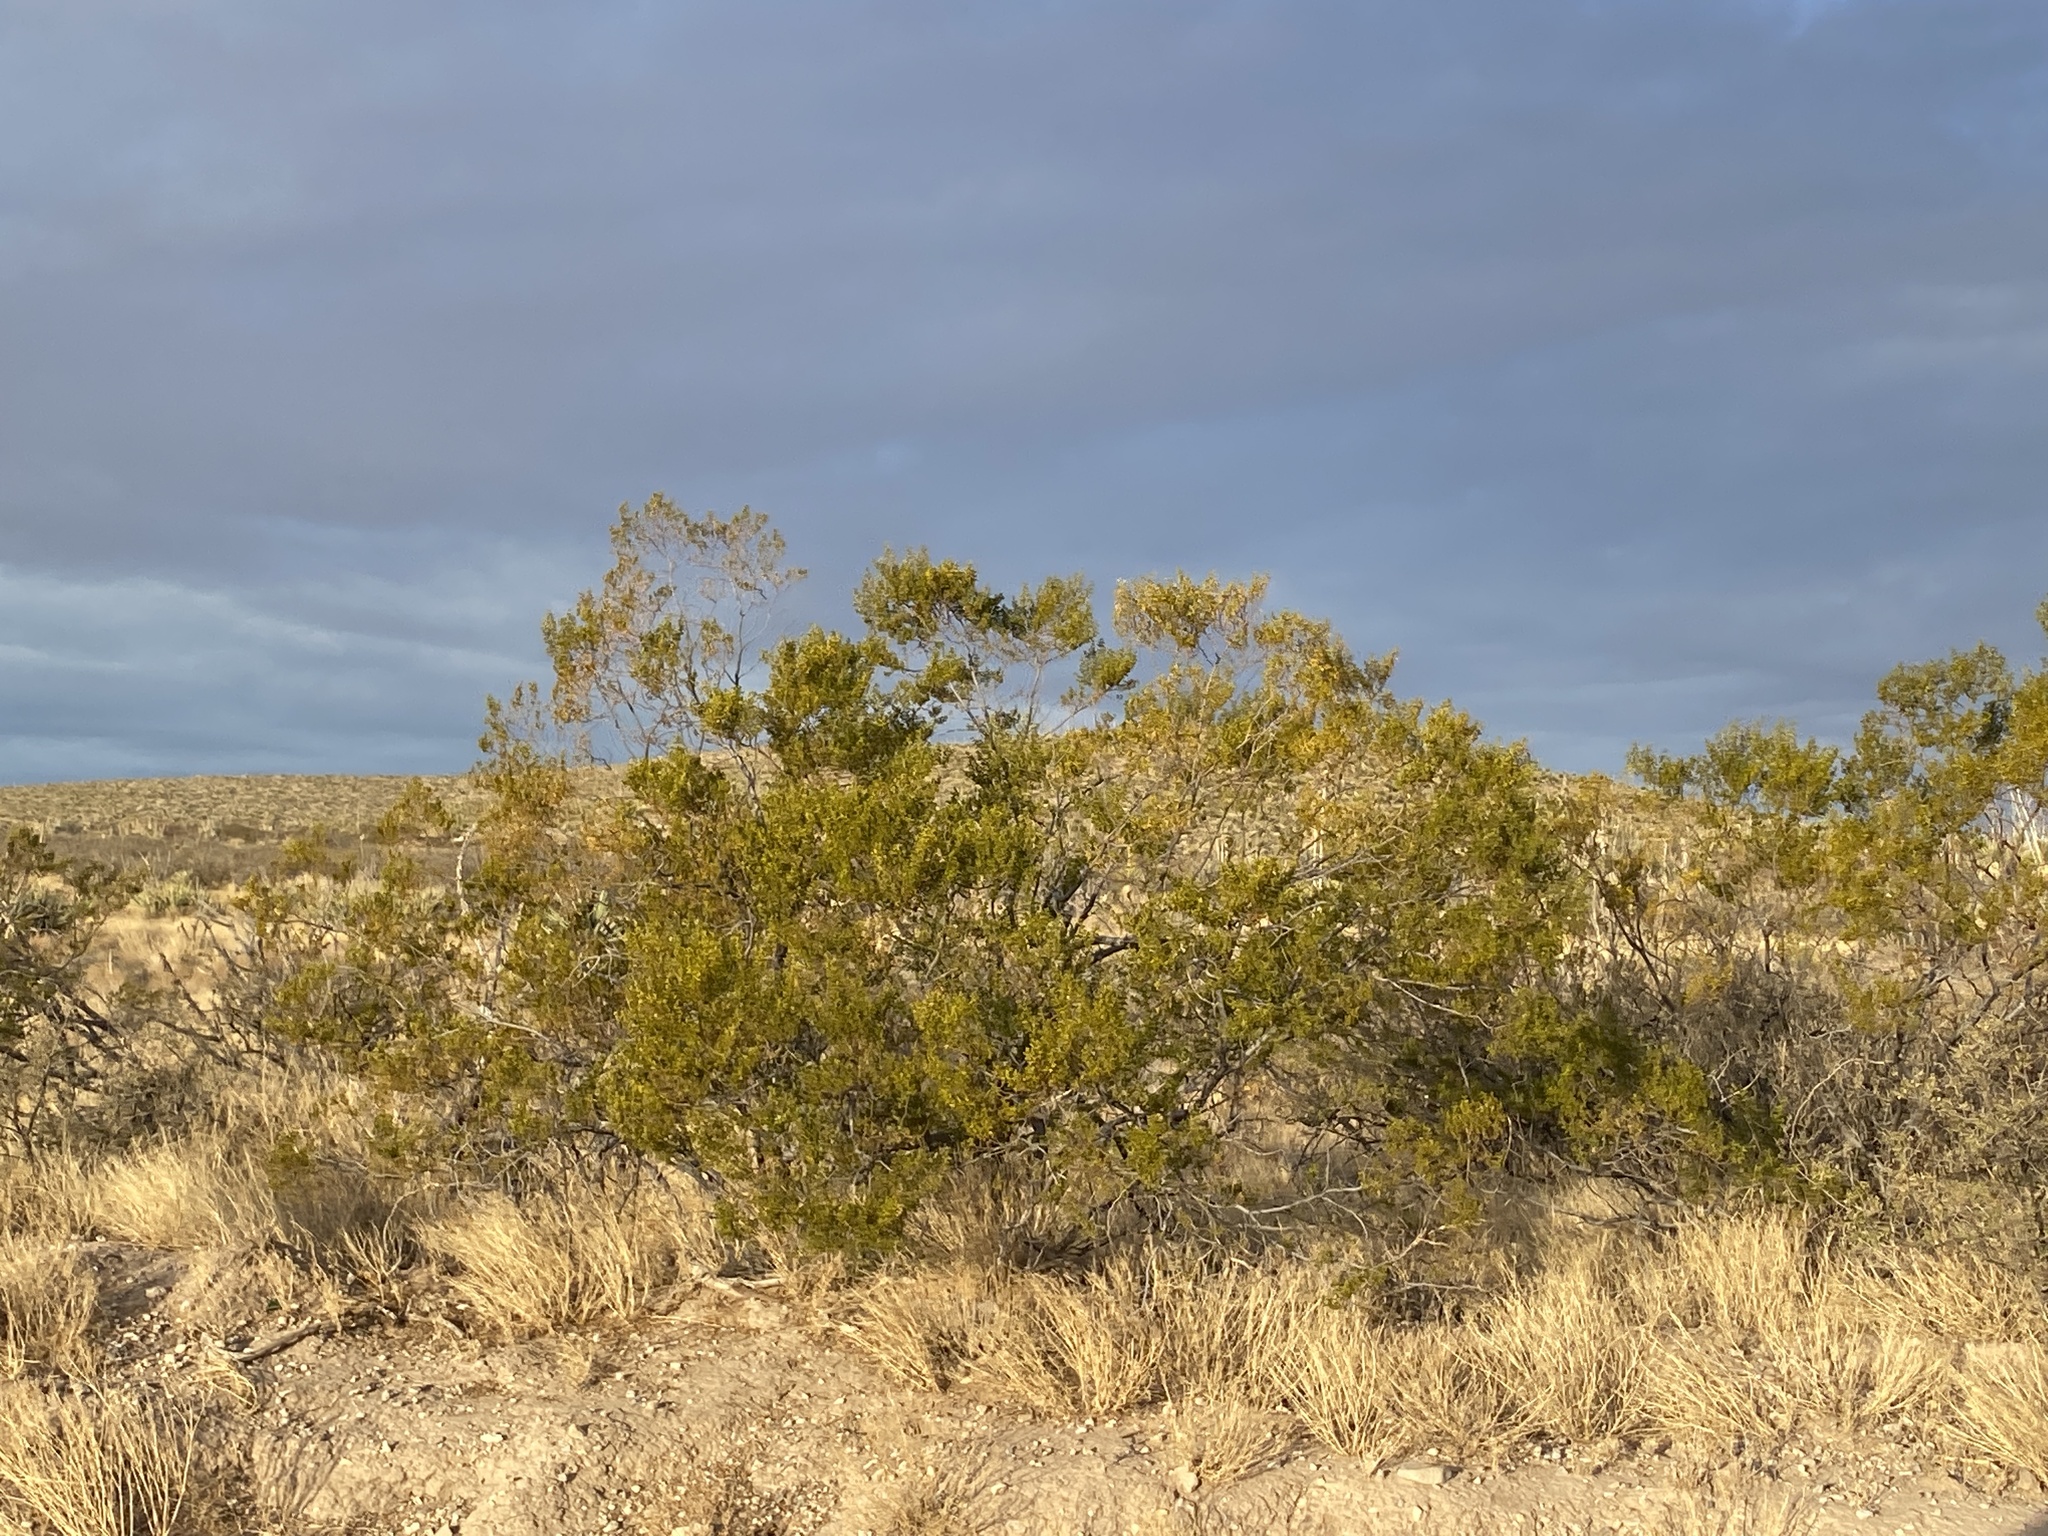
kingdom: Plantae
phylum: Tracheophyta
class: Magnoliopsida
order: Zygophyllales
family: Zygophyllaceae
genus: Larrea
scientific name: Larrea tridentata
